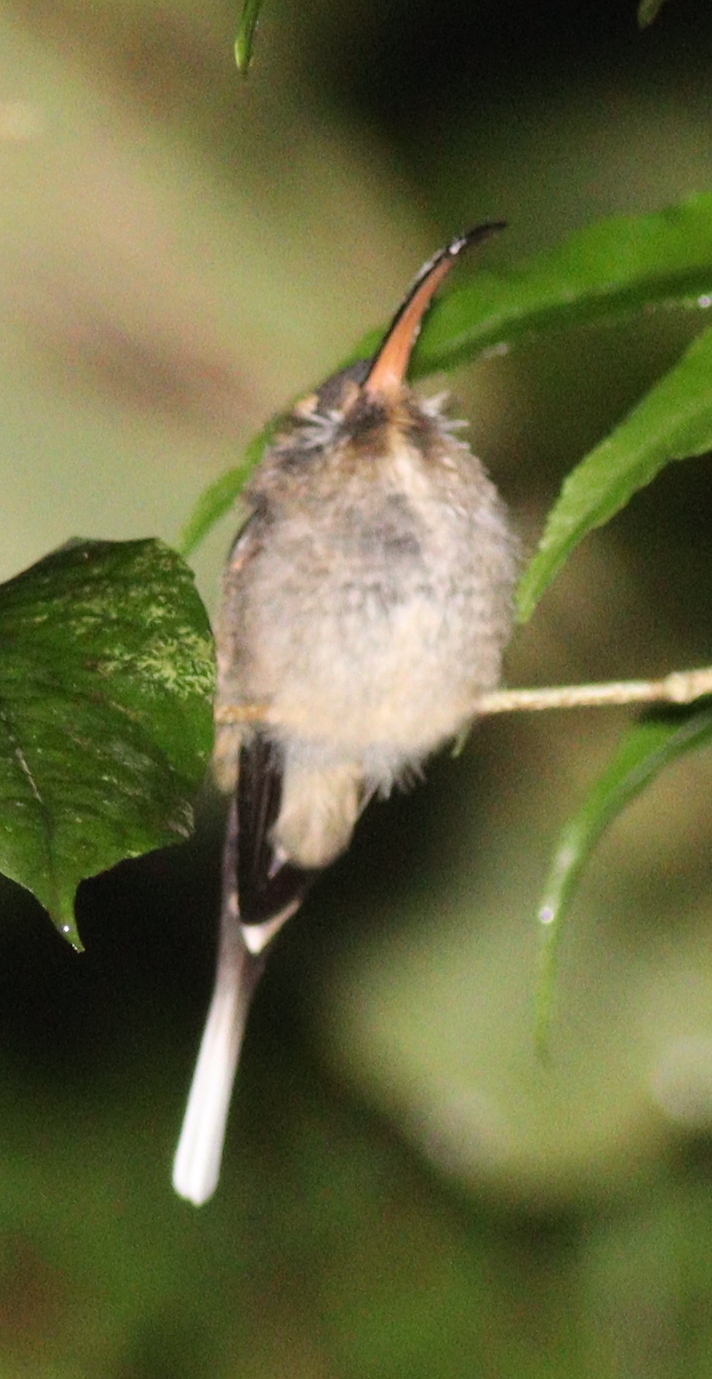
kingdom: Animalia
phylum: Chordata
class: Aves
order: Apodiformes
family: Trochilidae
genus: Phaethornis
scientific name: Phaethornis longirostris
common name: Long-billed hermit
